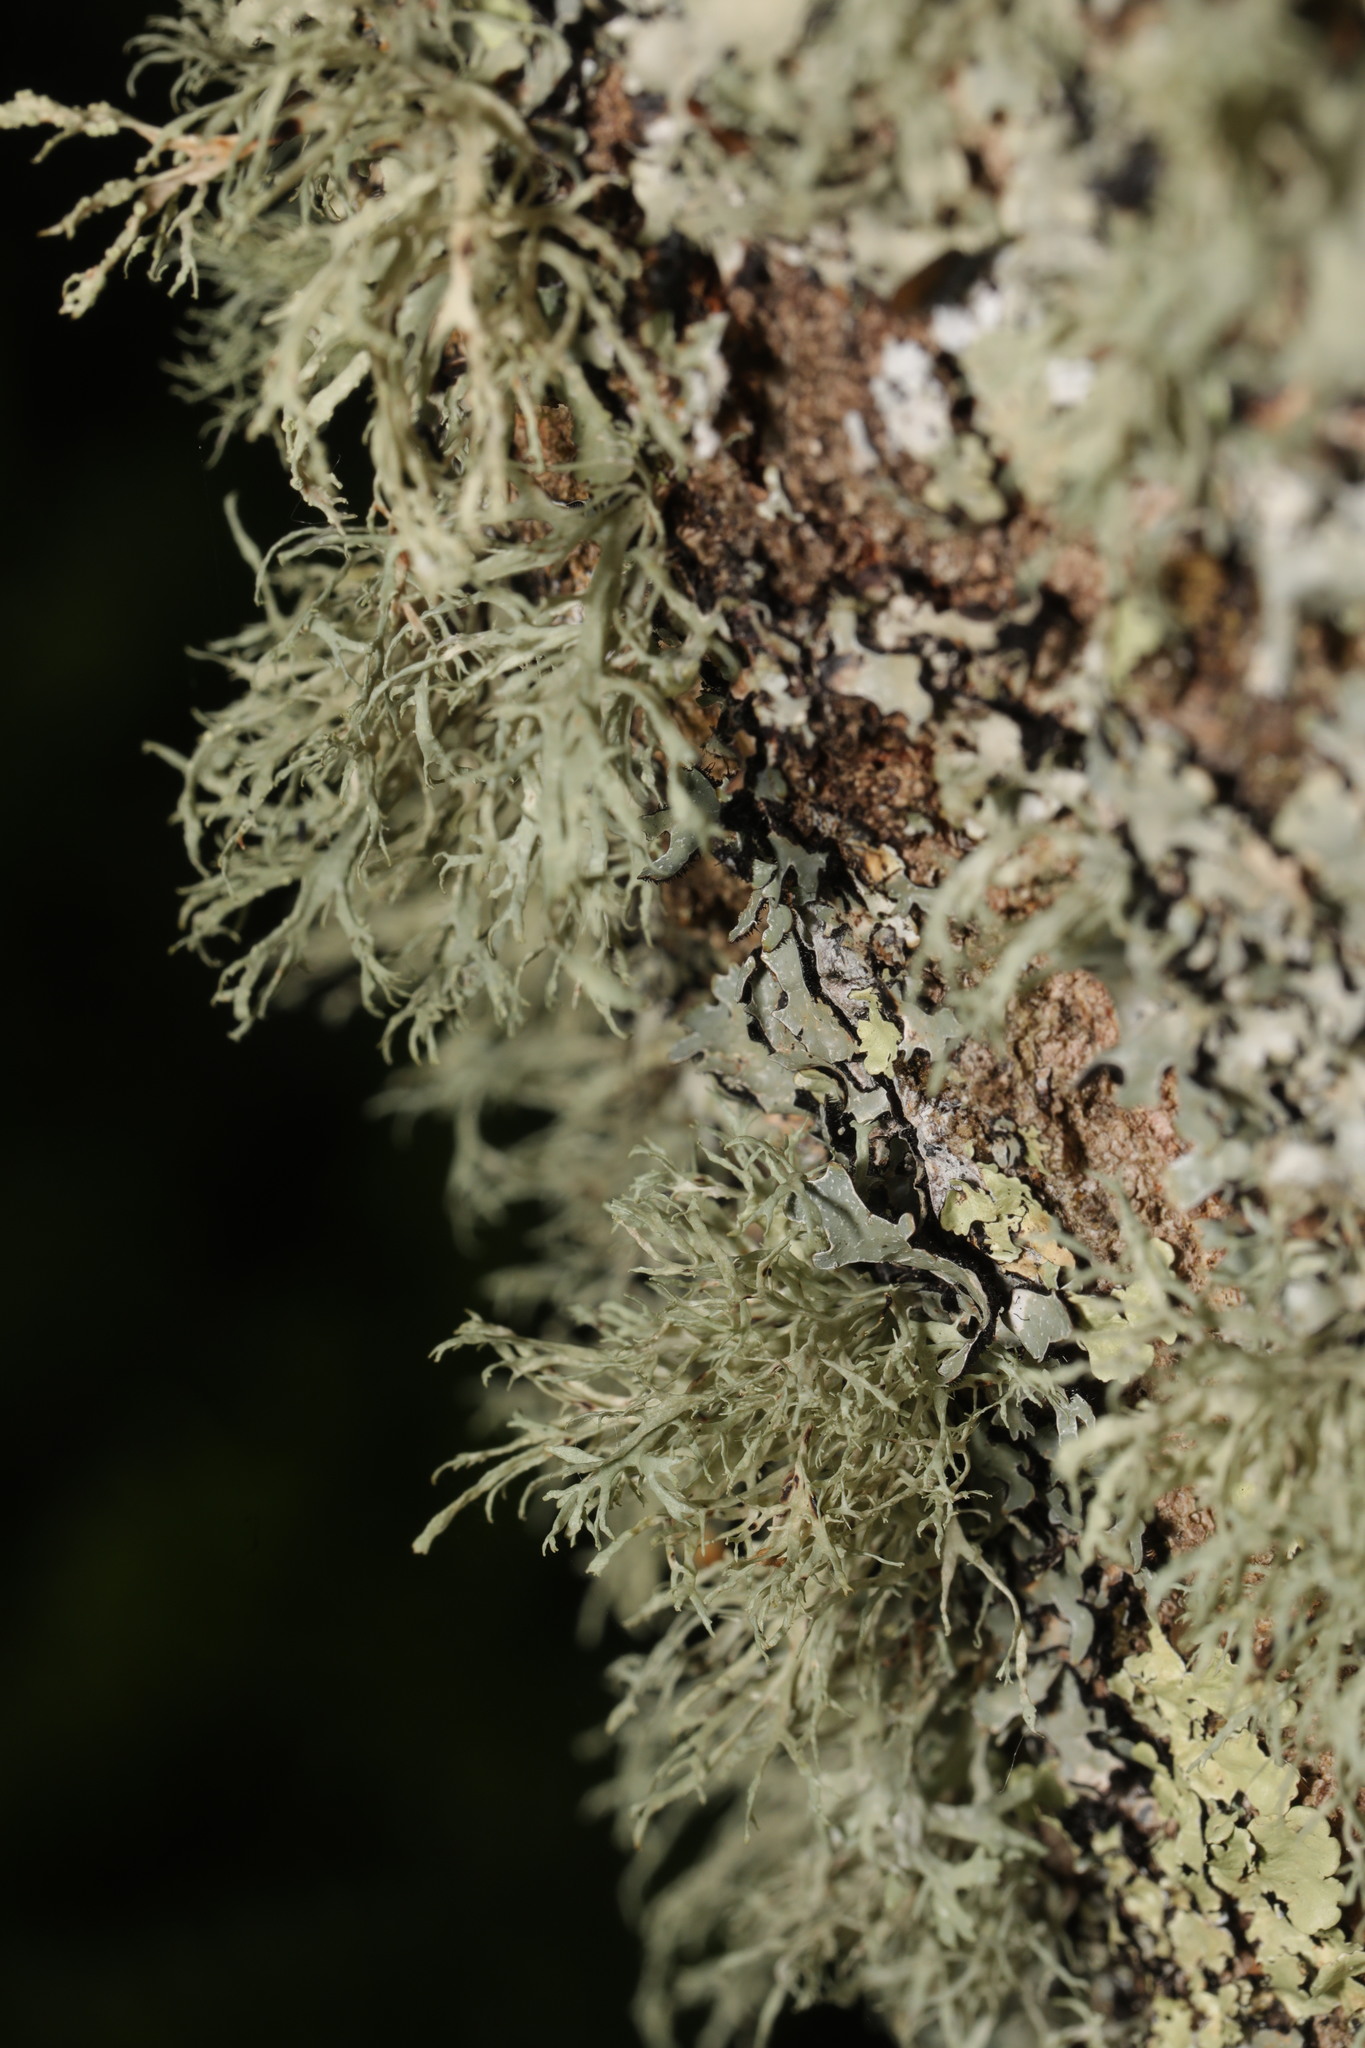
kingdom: Fungi
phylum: Ascomycota
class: Lecanoromycetes
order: Lecanorales
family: Ramalinaceae
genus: Ramalina
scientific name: Ramalina farinacea
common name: Farinose cartilage lichen
